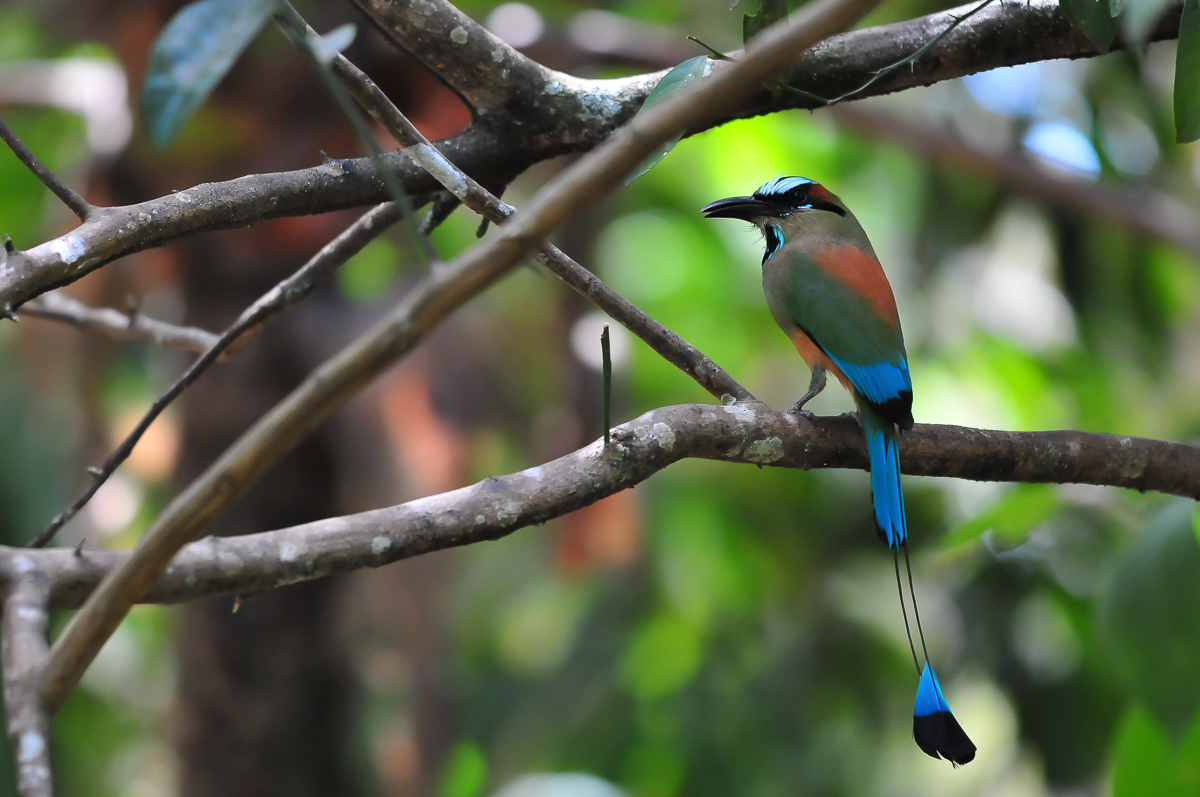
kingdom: Animalia
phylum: Chordata
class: Aves
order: Coraciiformes
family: Momotidae
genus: Eumomota
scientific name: Eumomota superciliosa
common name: Turquoise-browed motmot
